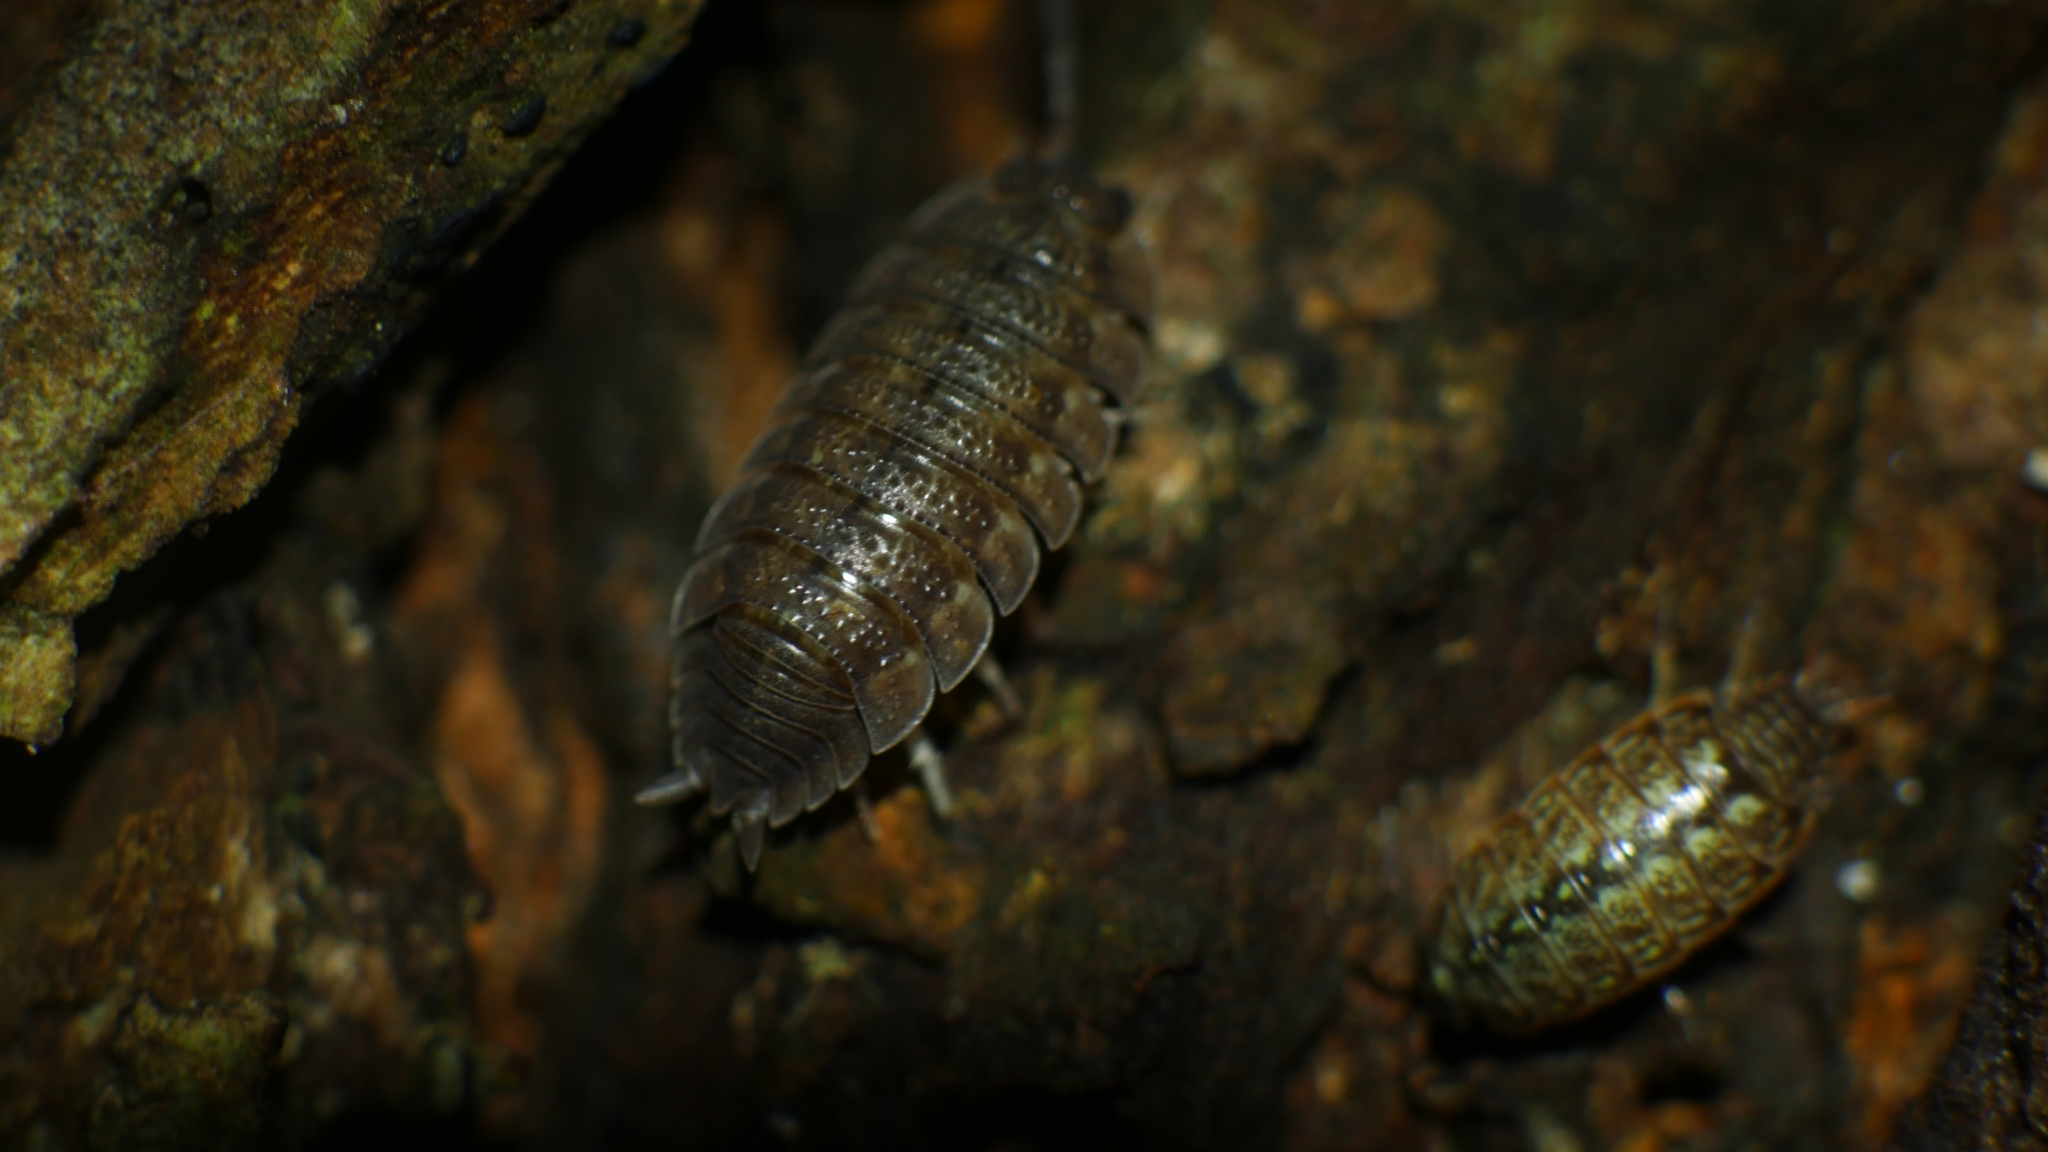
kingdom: Animalia
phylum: Arthropoda
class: Malacostraca
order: Isopoda
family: Porcellionidae
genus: Porcellio
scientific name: Porcellio scaber
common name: Common rough woodlouse
